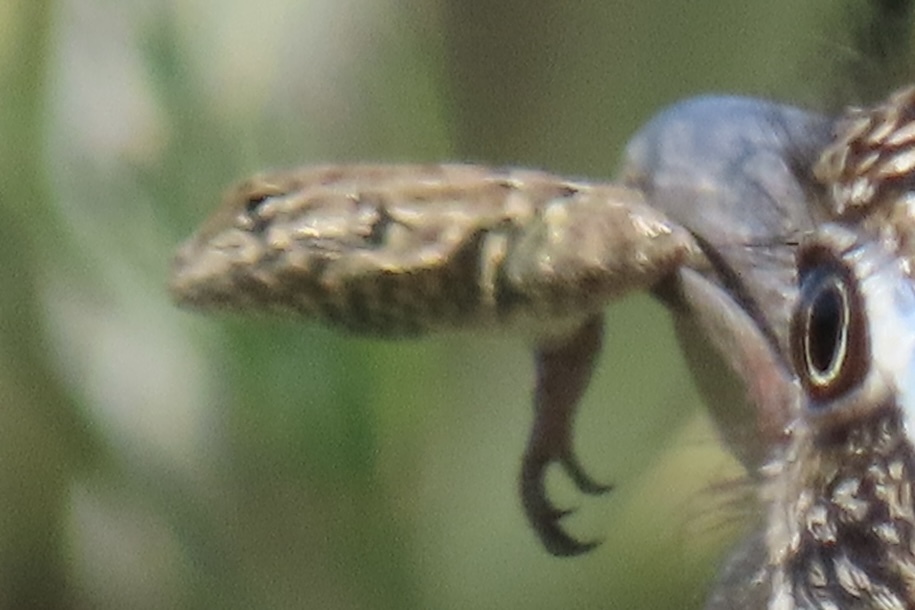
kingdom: Animalia
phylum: Chordata
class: Squamata
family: Phrynosomatidae
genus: Uta
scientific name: Uta stansburiana
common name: Side-blotched lizard
